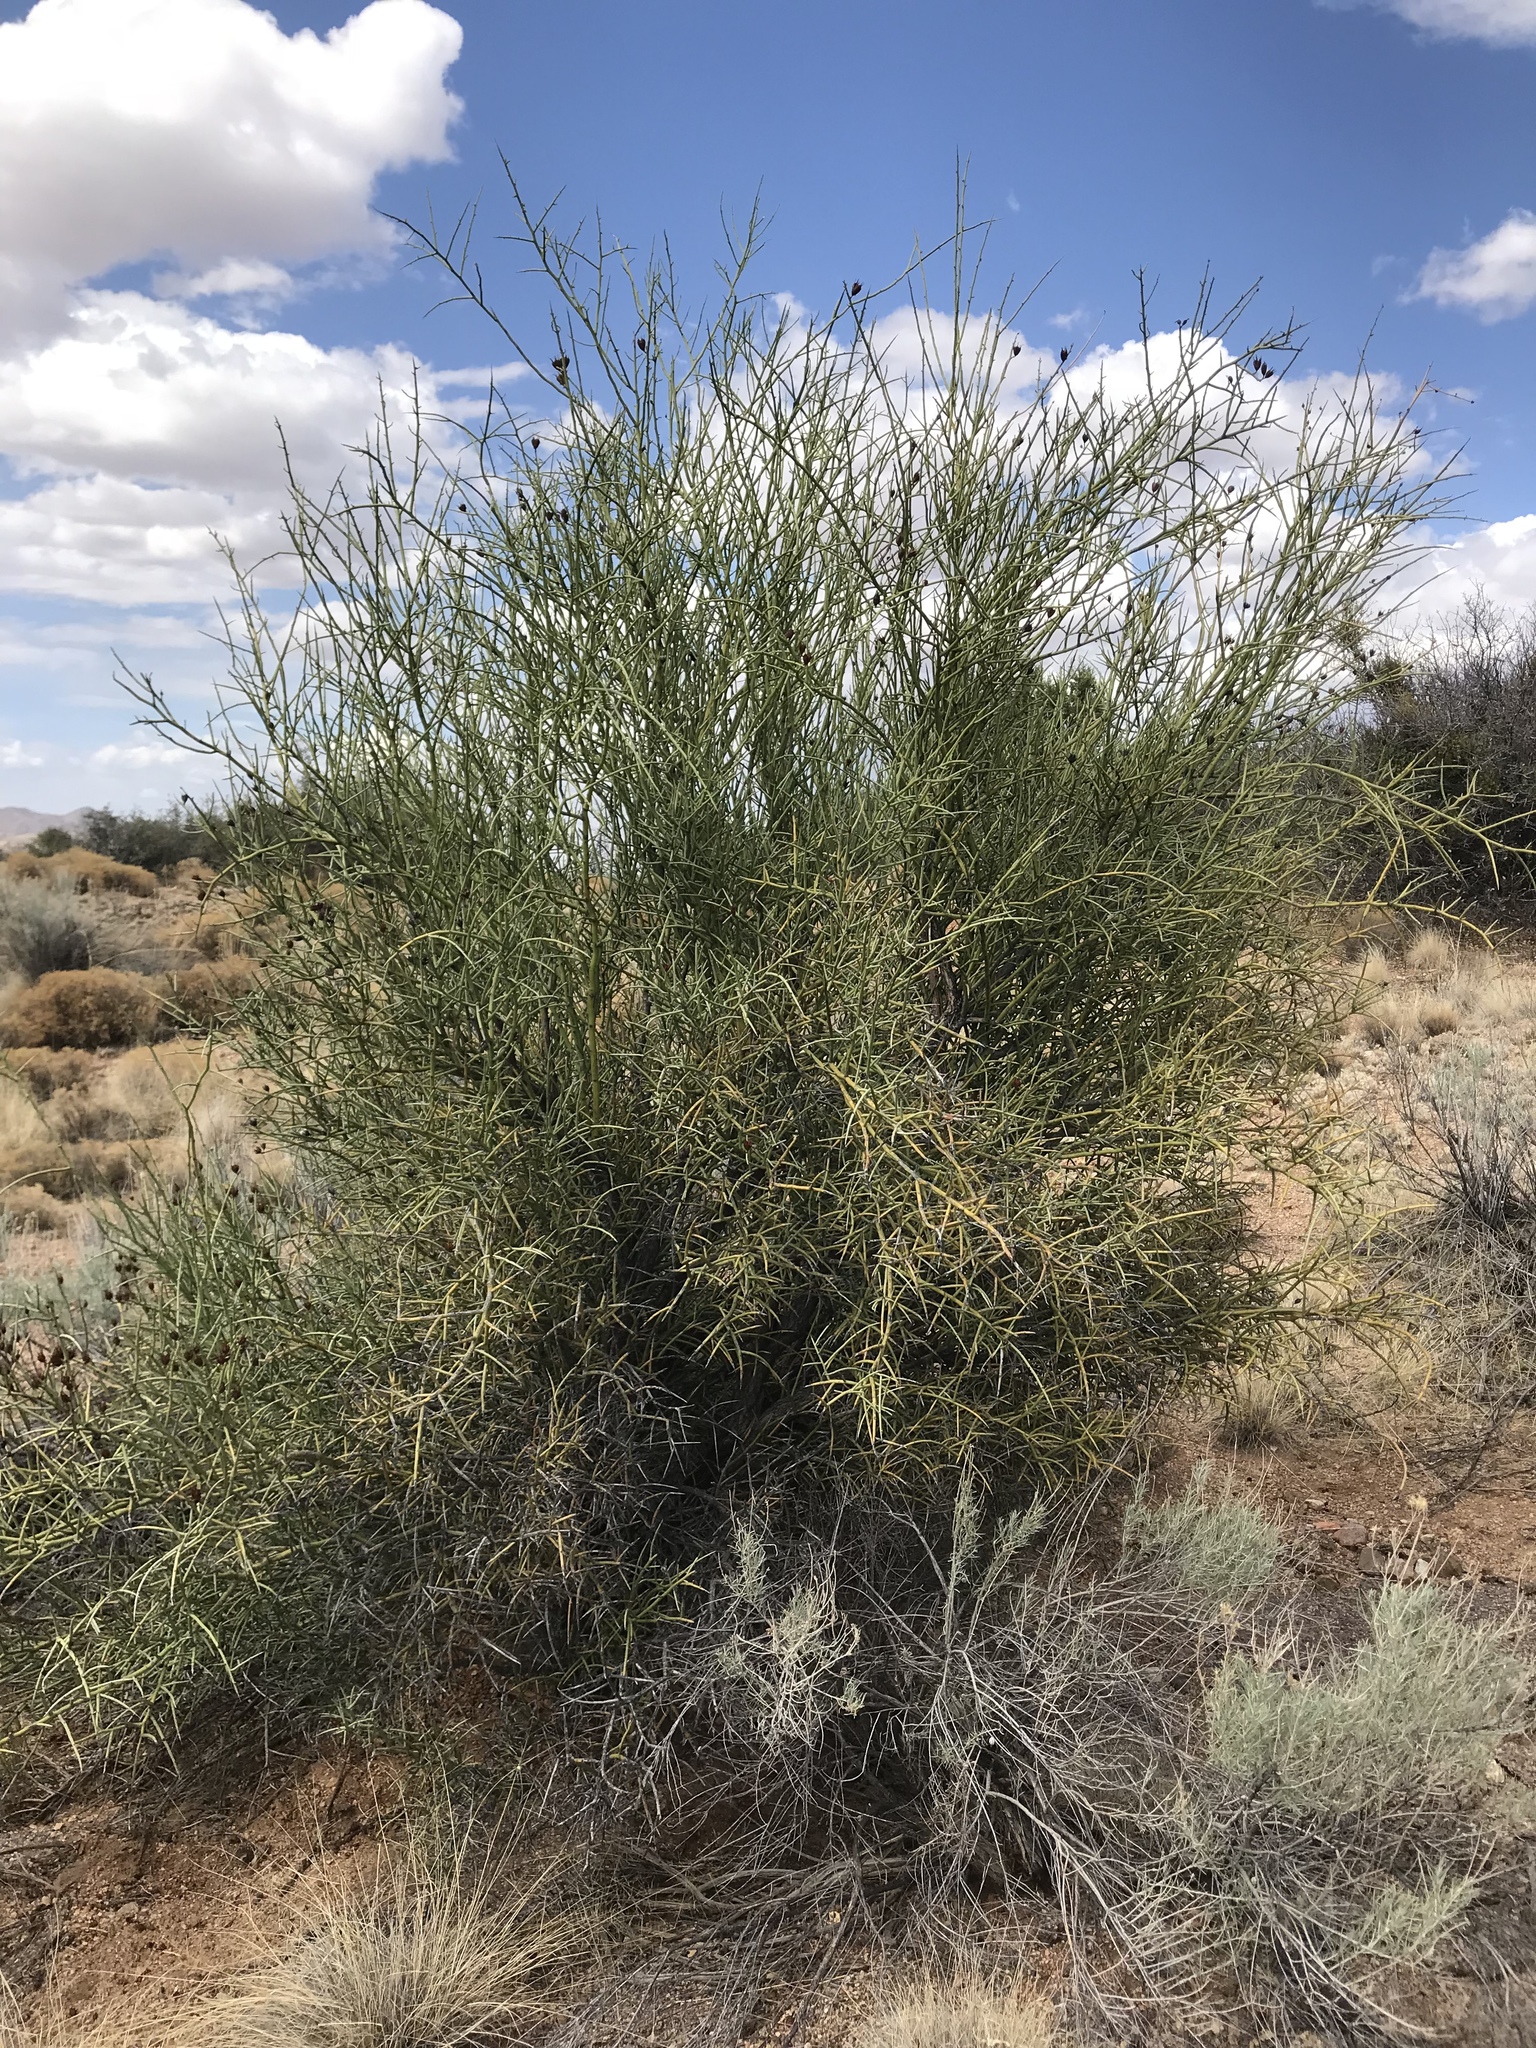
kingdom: Plantae
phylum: Tracheophyta
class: Magnoliopsida
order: Celastrales
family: Celastraceae
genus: Canotia
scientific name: Canotia holacantha
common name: Crucifixion thorns
